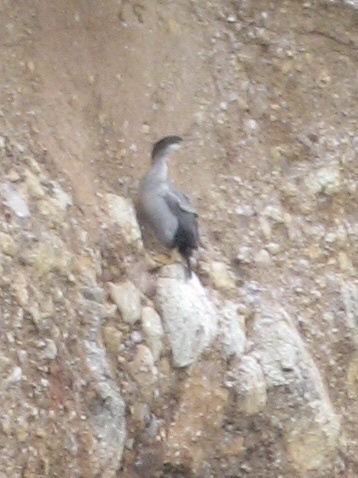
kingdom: Animalia
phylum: Chordata
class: Aves
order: Suliformes
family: Phalacrocoracidae
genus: Phalacrocorax
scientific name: Phalacrocorax punctatus
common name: Spotted shag
